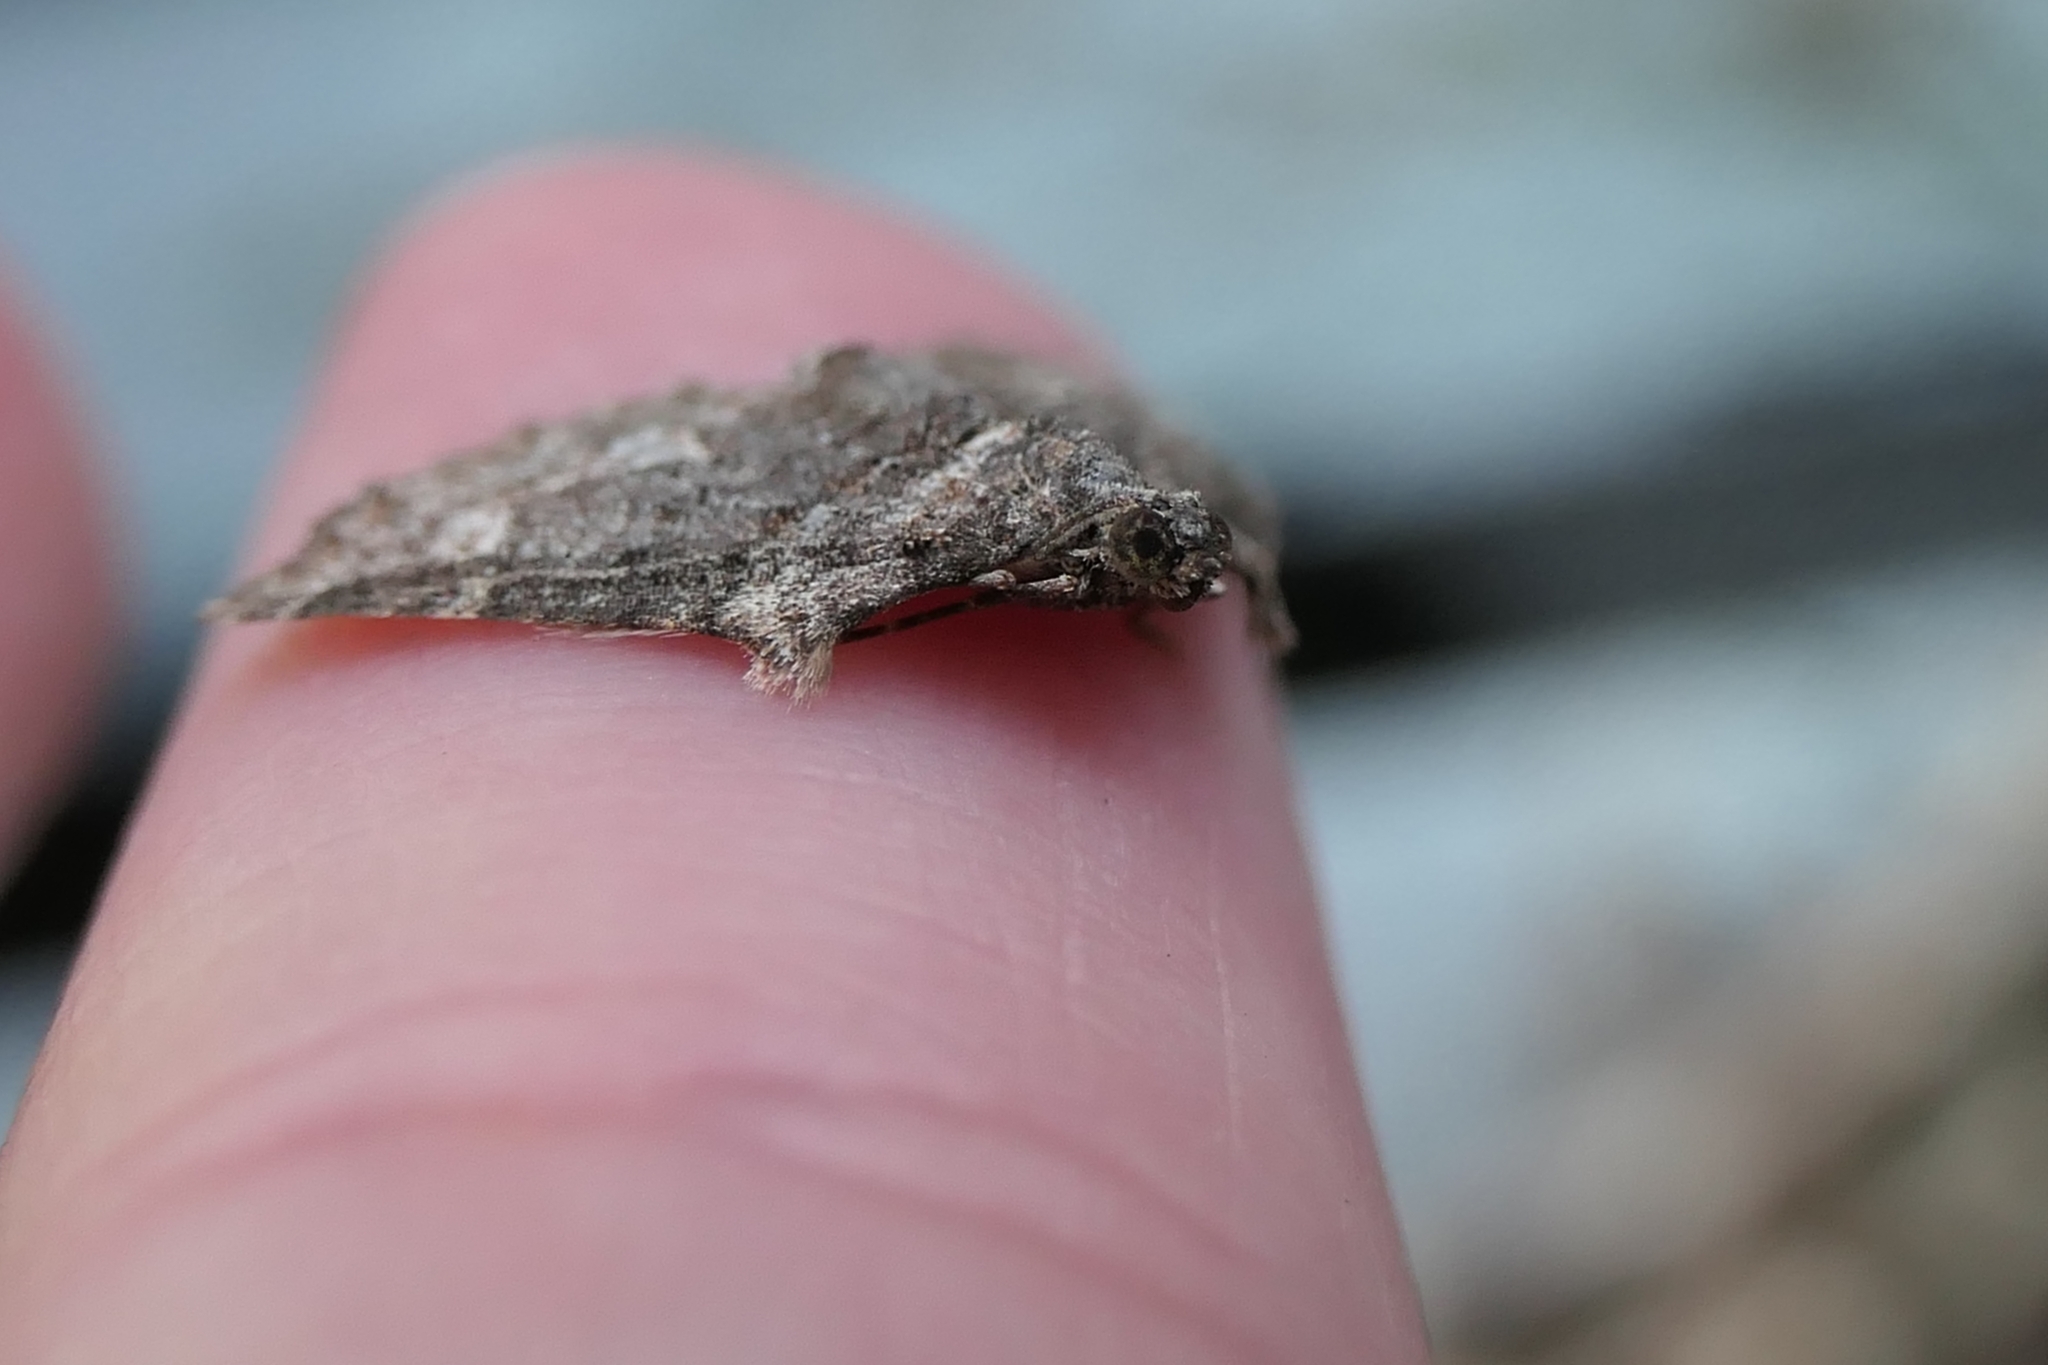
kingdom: Animalia
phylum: Arthropoda
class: Insecta
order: Lepidoptera
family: Geometridae
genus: Phrissogonus
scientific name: Phrissogonus laticostata
